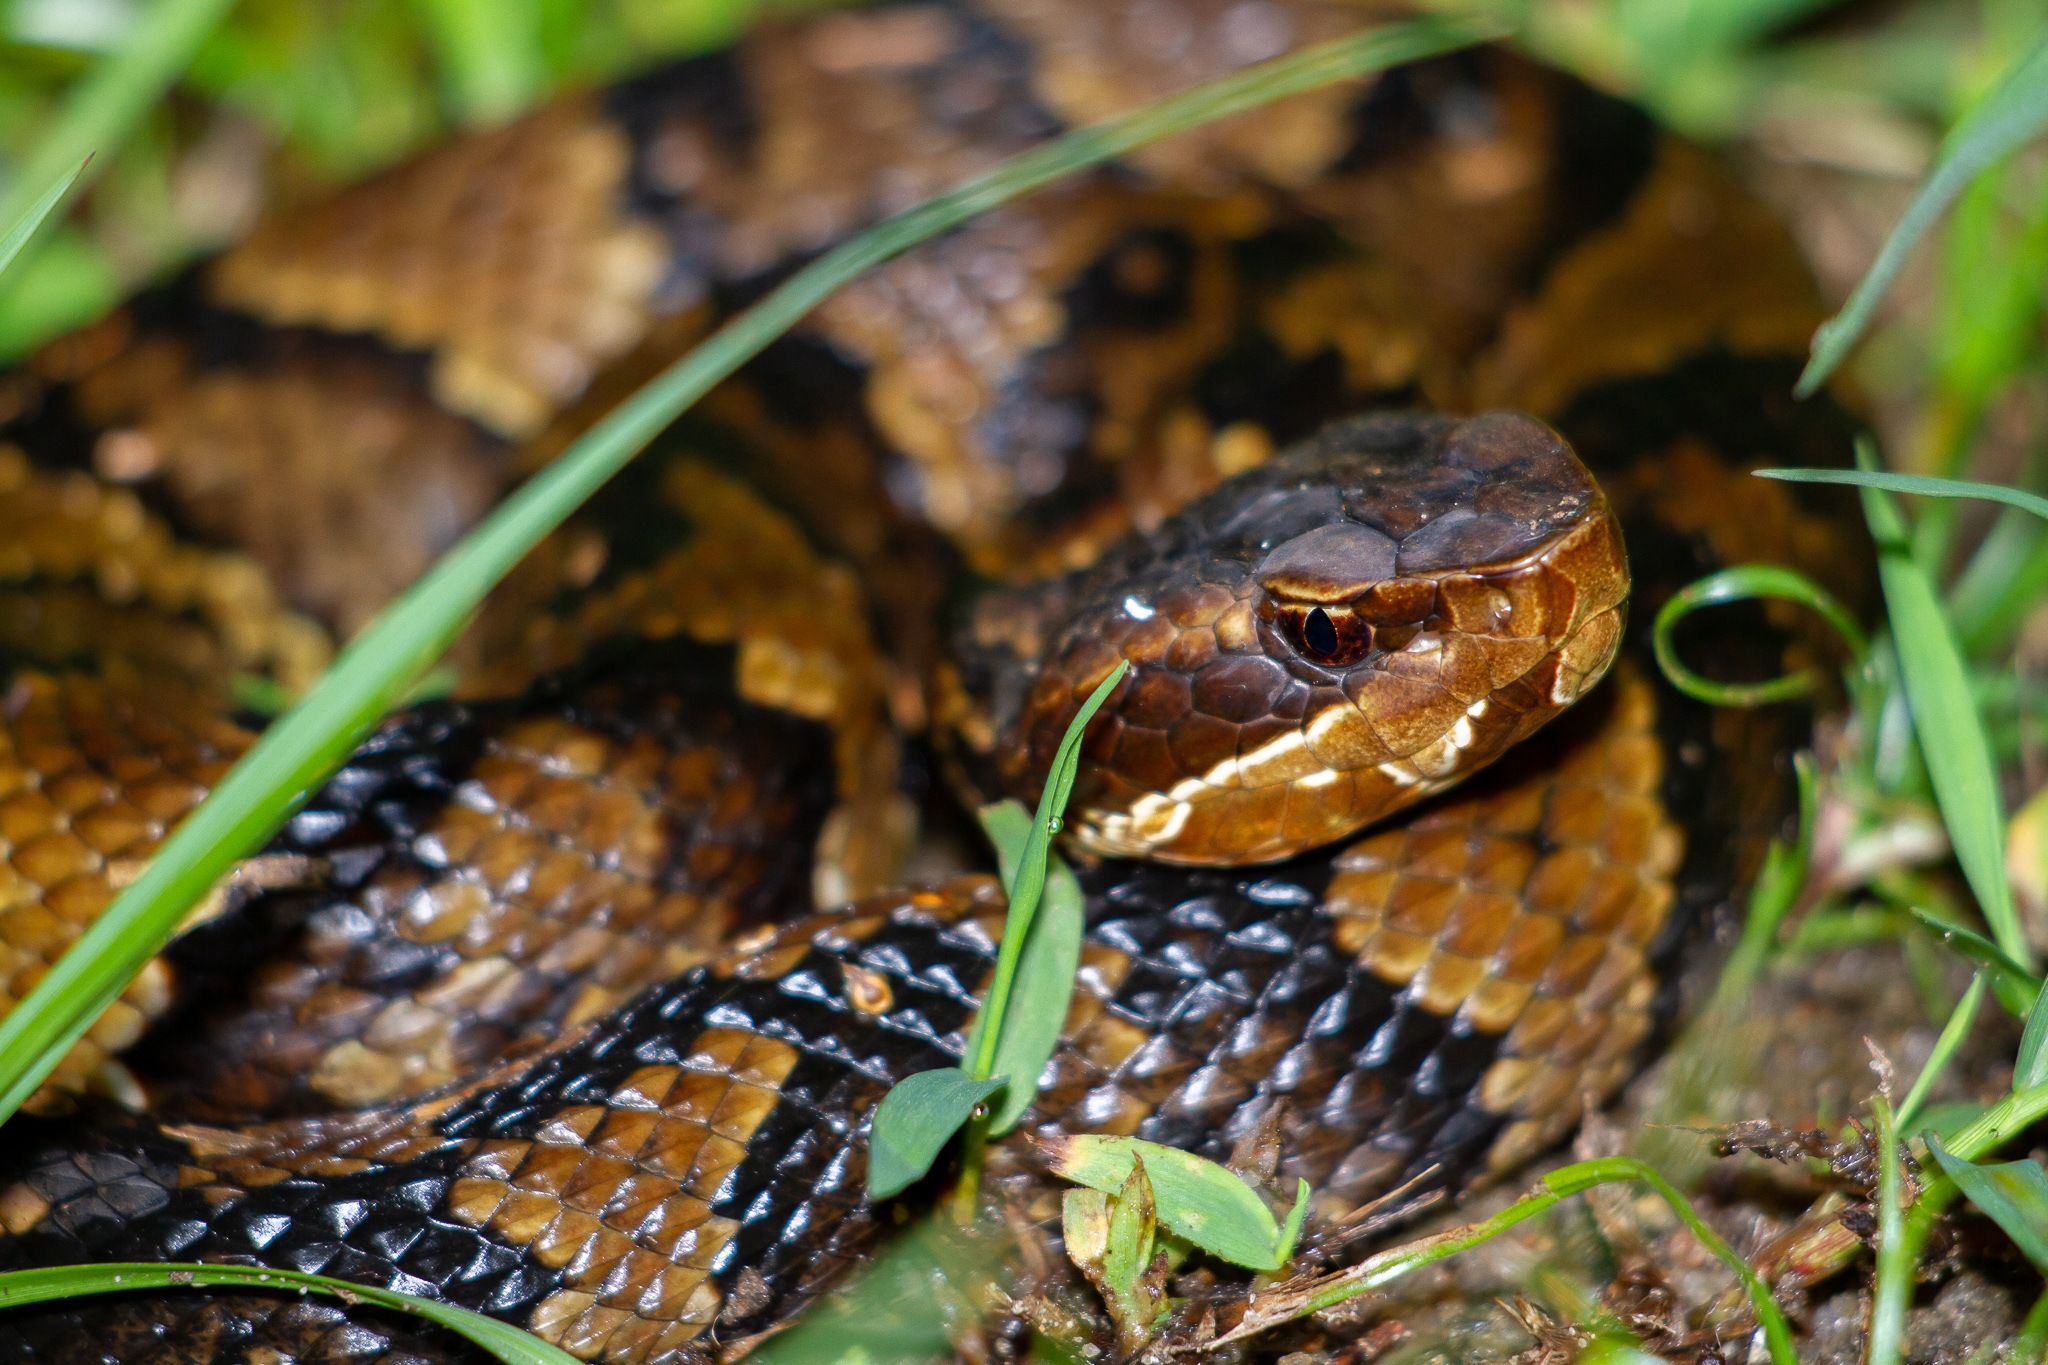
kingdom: Animalia
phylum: Chordata
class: Squamata
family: Viperidae
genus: Agkistrodon
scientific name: Agkistrodon piscivorus
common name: Cottonmouth
